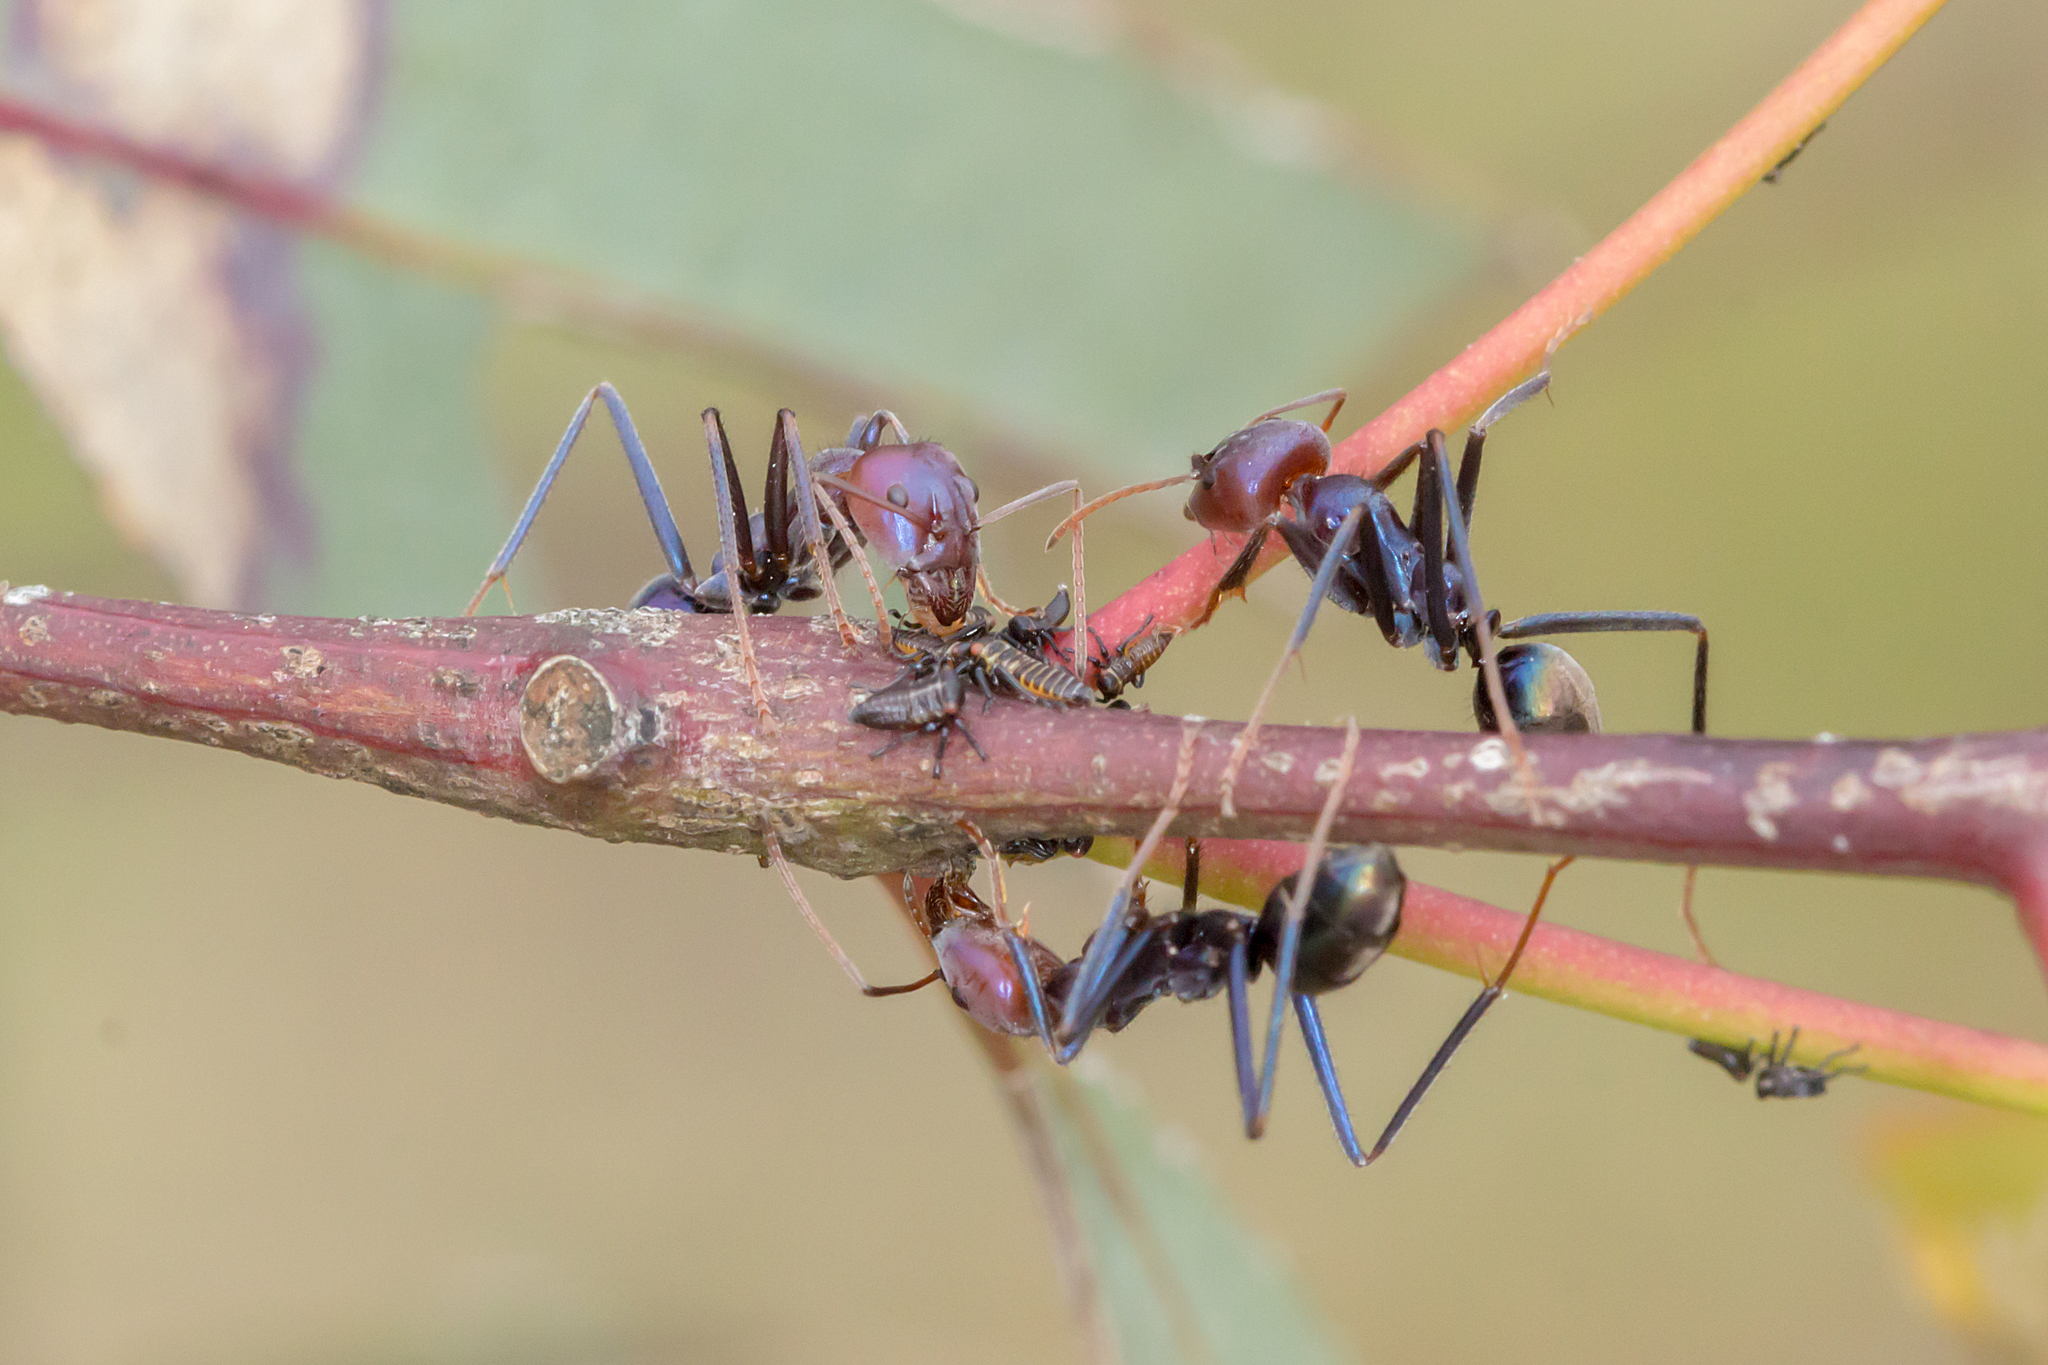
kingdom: Animalia
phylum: Arthropoda
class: Insecta
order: Hymenoptera
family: Formicidae
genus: Iridomyrmex
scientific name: Iridomyrmex purpureus
